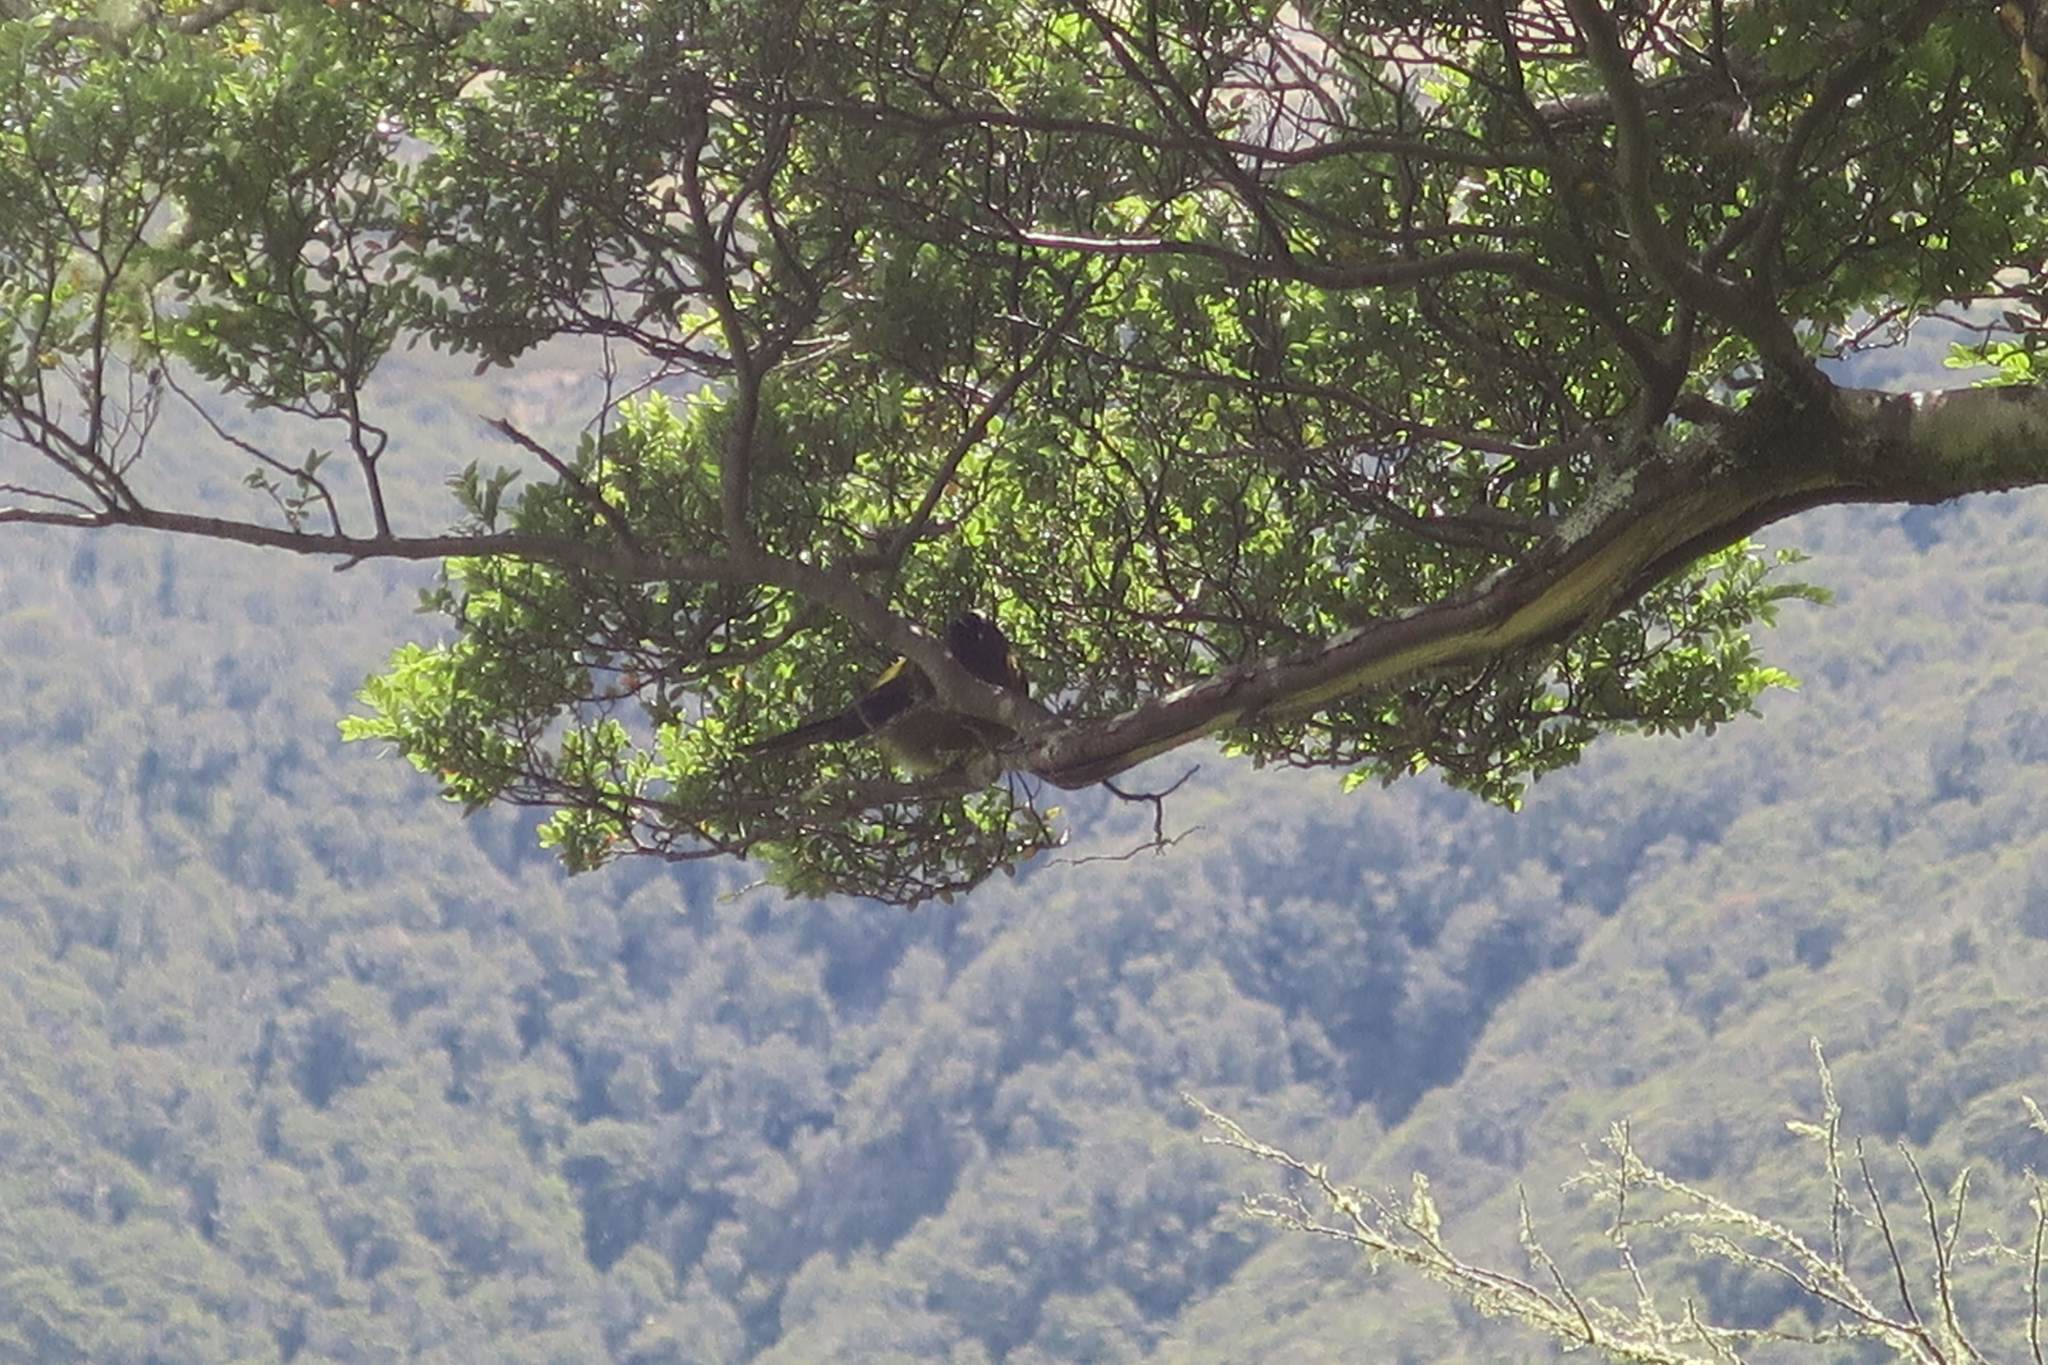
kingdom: Animalia
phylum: Chordata
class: Aves
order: Passeriformes
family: Meliphagidae
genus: Anthornis
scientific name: Anthornis melanura
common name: New zealand bellbird
